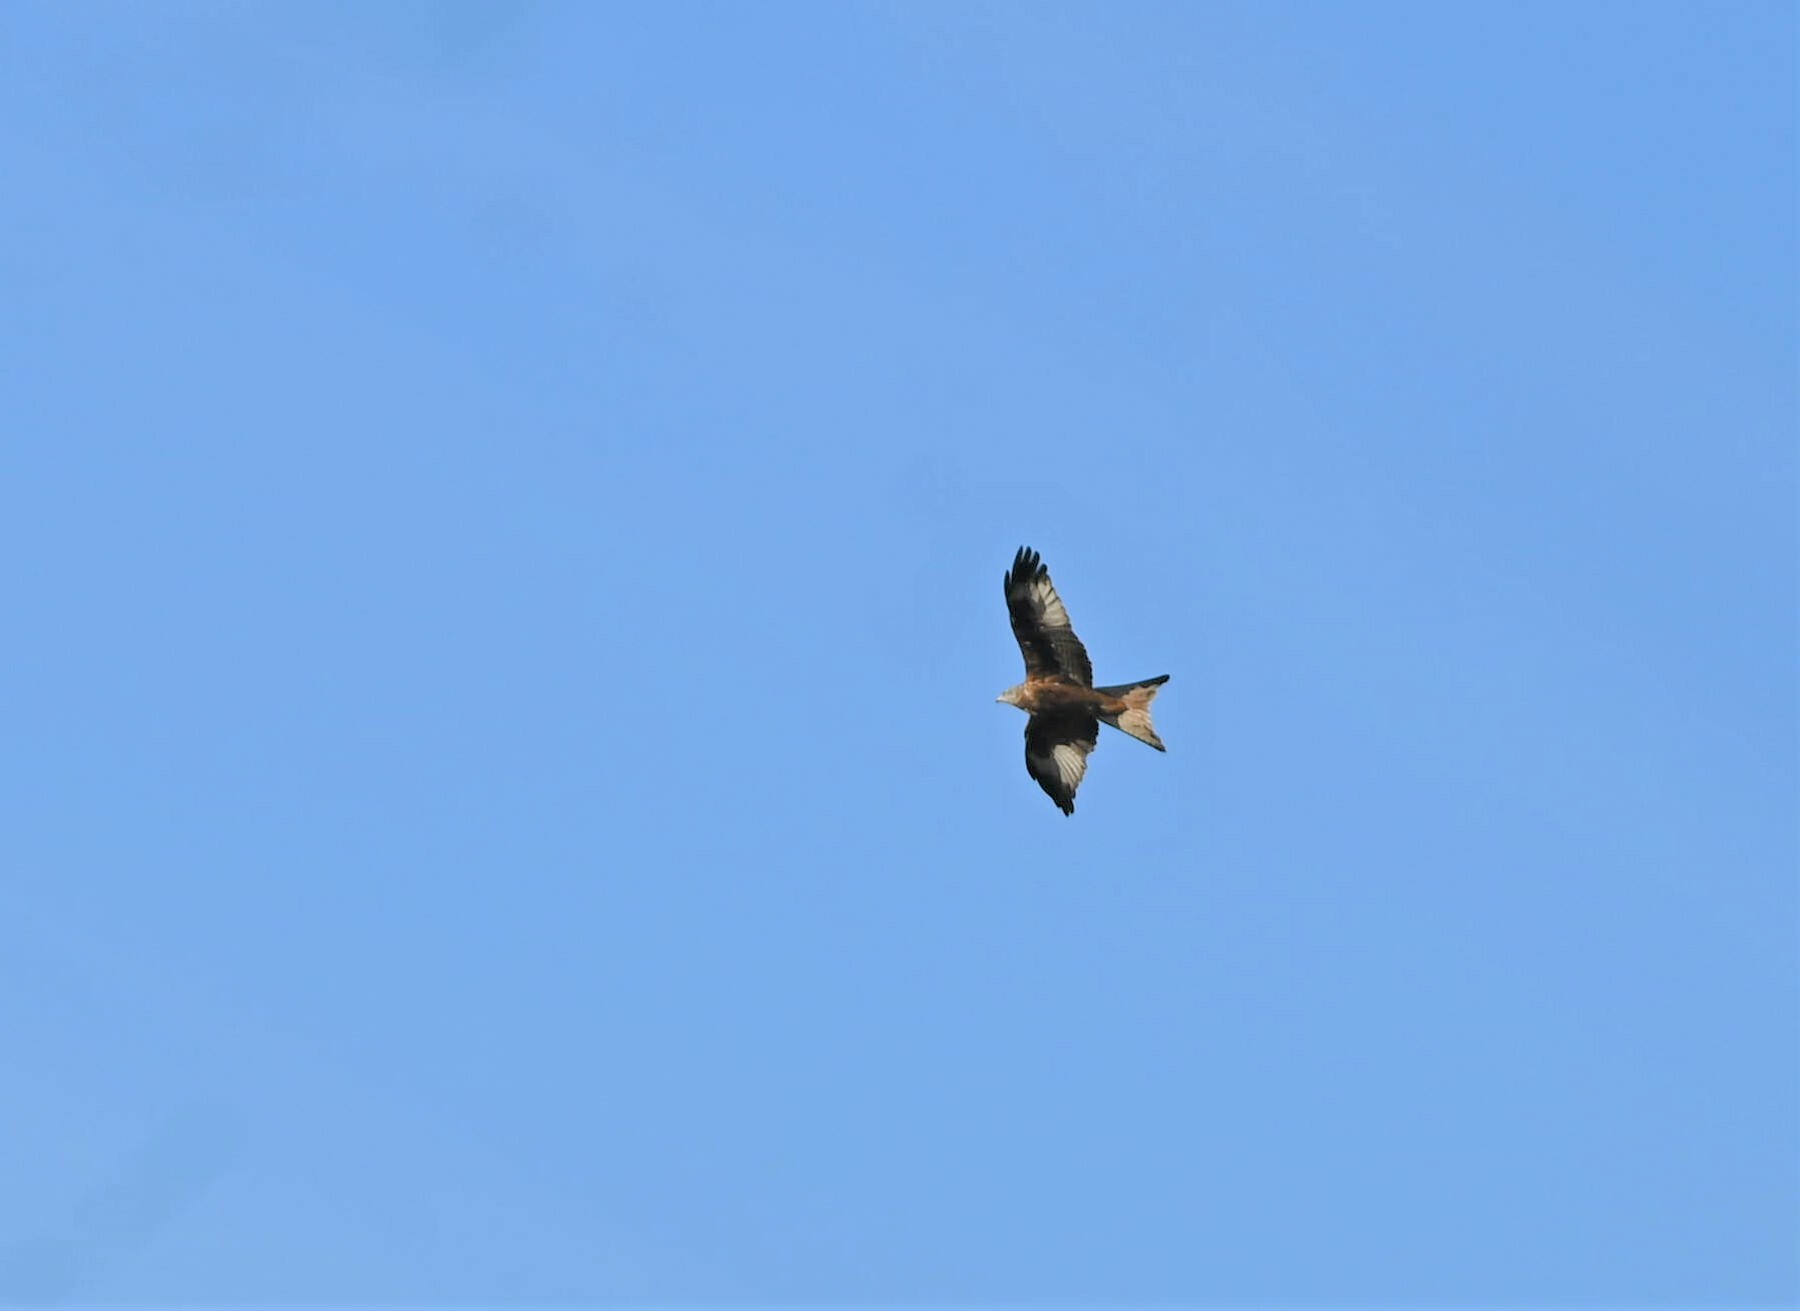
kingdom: Animalia
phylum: Chordata
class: Aves
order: Accipitriformes
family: Accipitridae
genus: Milvus
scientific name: Milvus milvus
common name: Red kite
